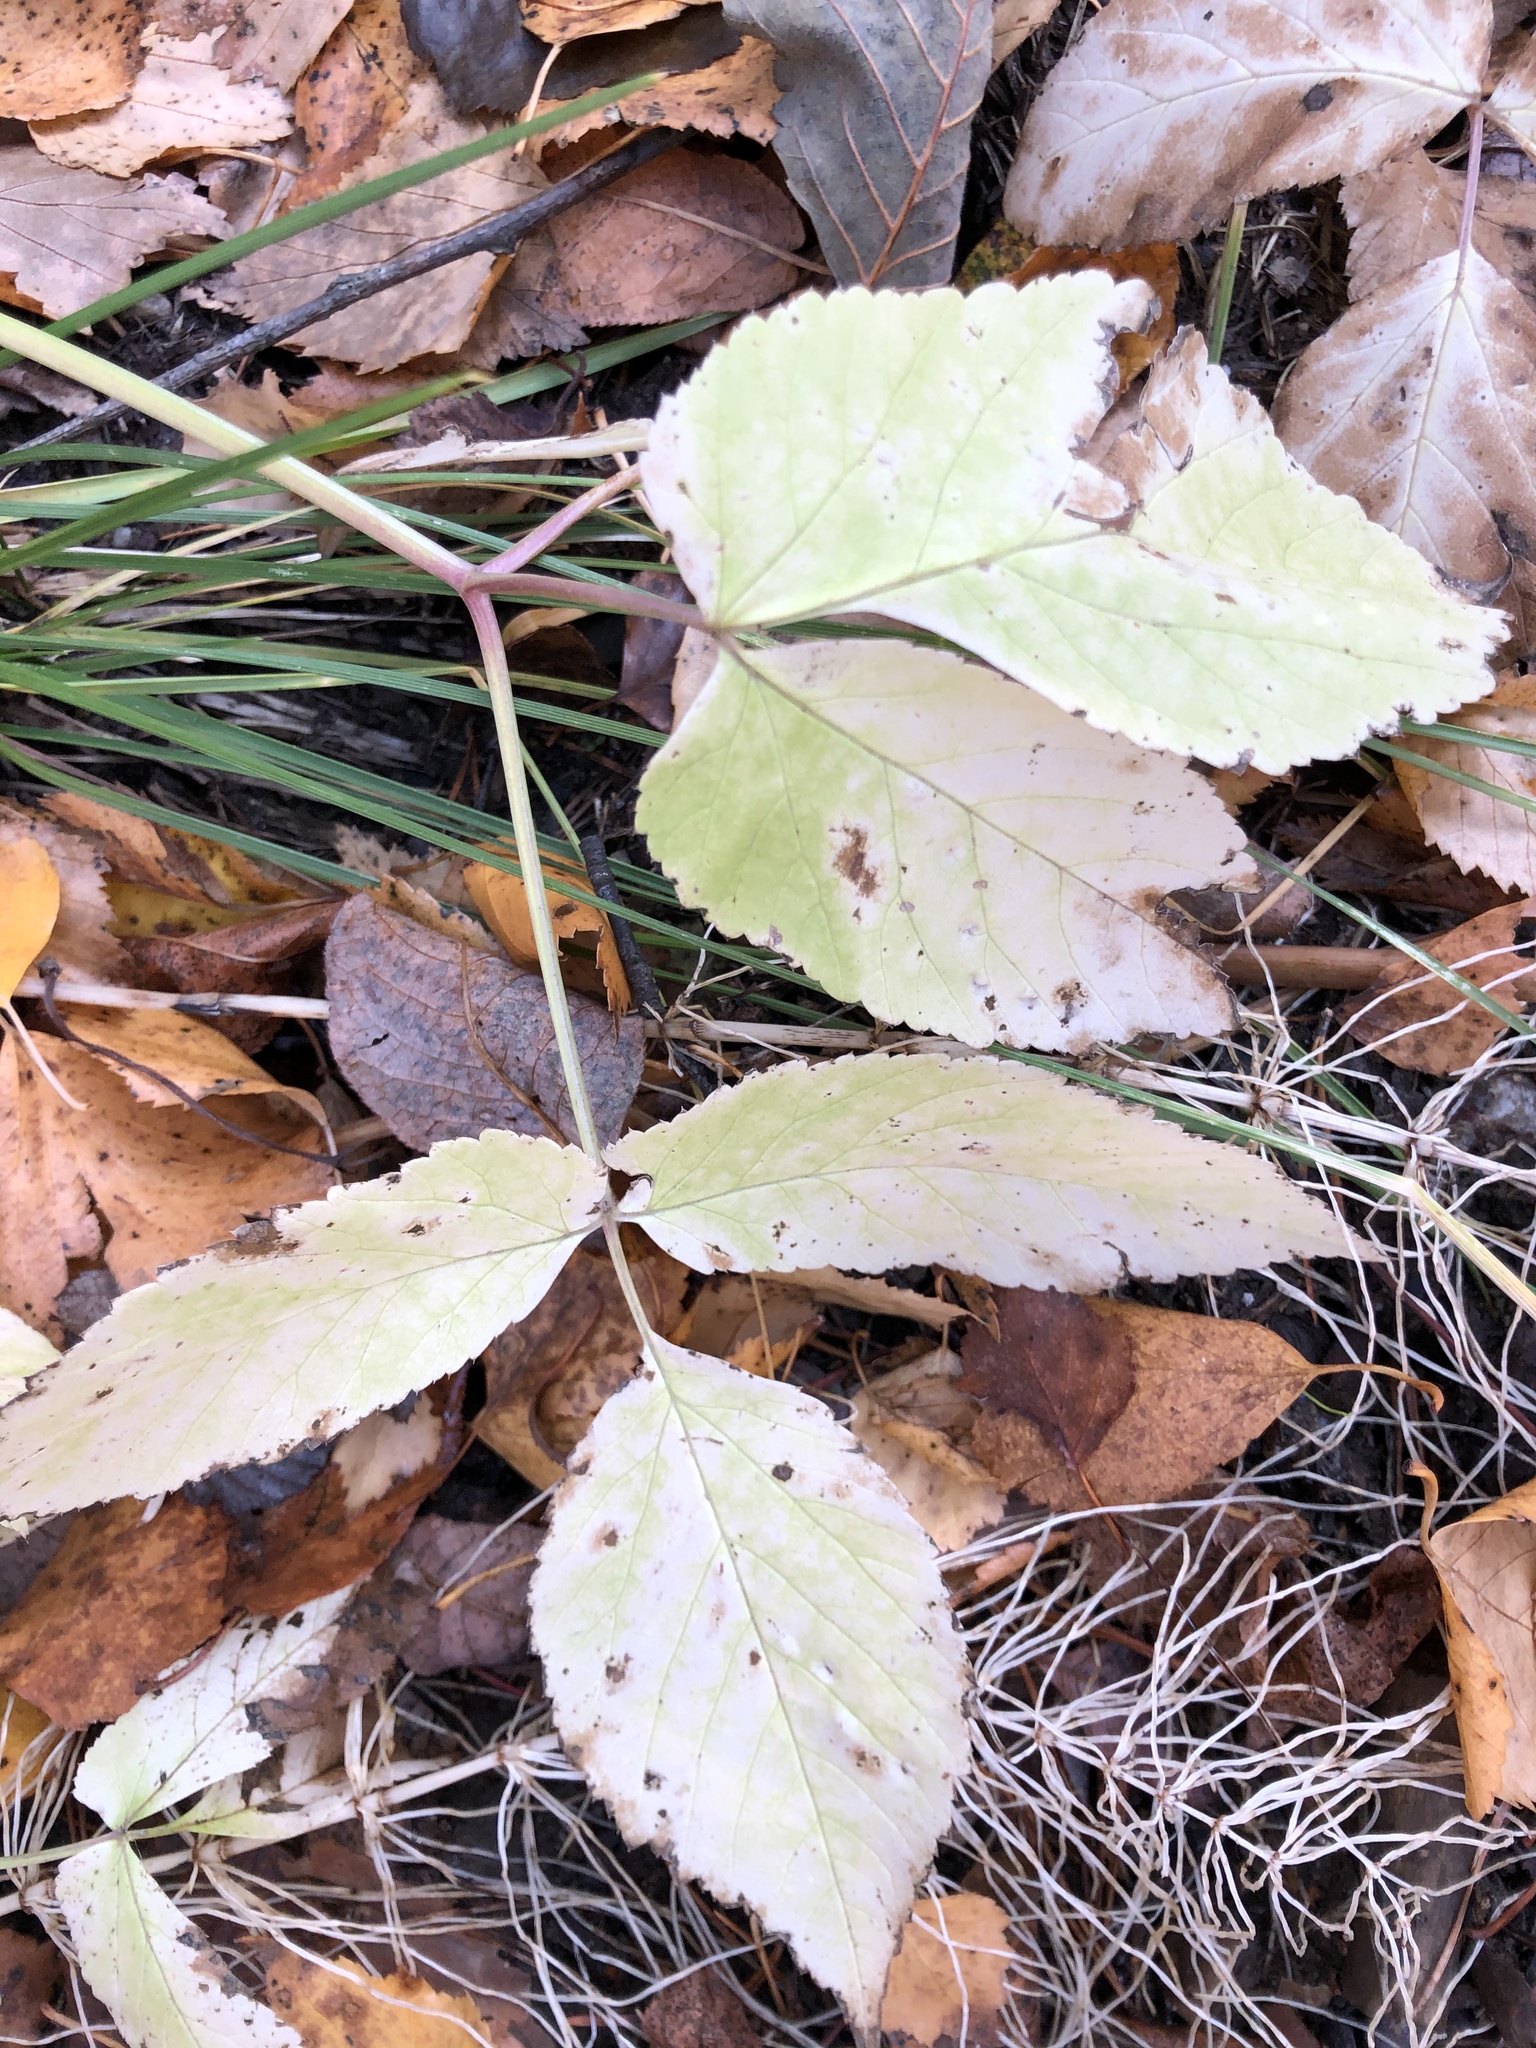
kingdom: Plantae
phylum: Tracheophyta
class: Magnoliopsida
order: Apiales
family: Apiaceae
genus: Aegopodium
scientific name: Aegopodium podagraria
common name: Ground-elder
